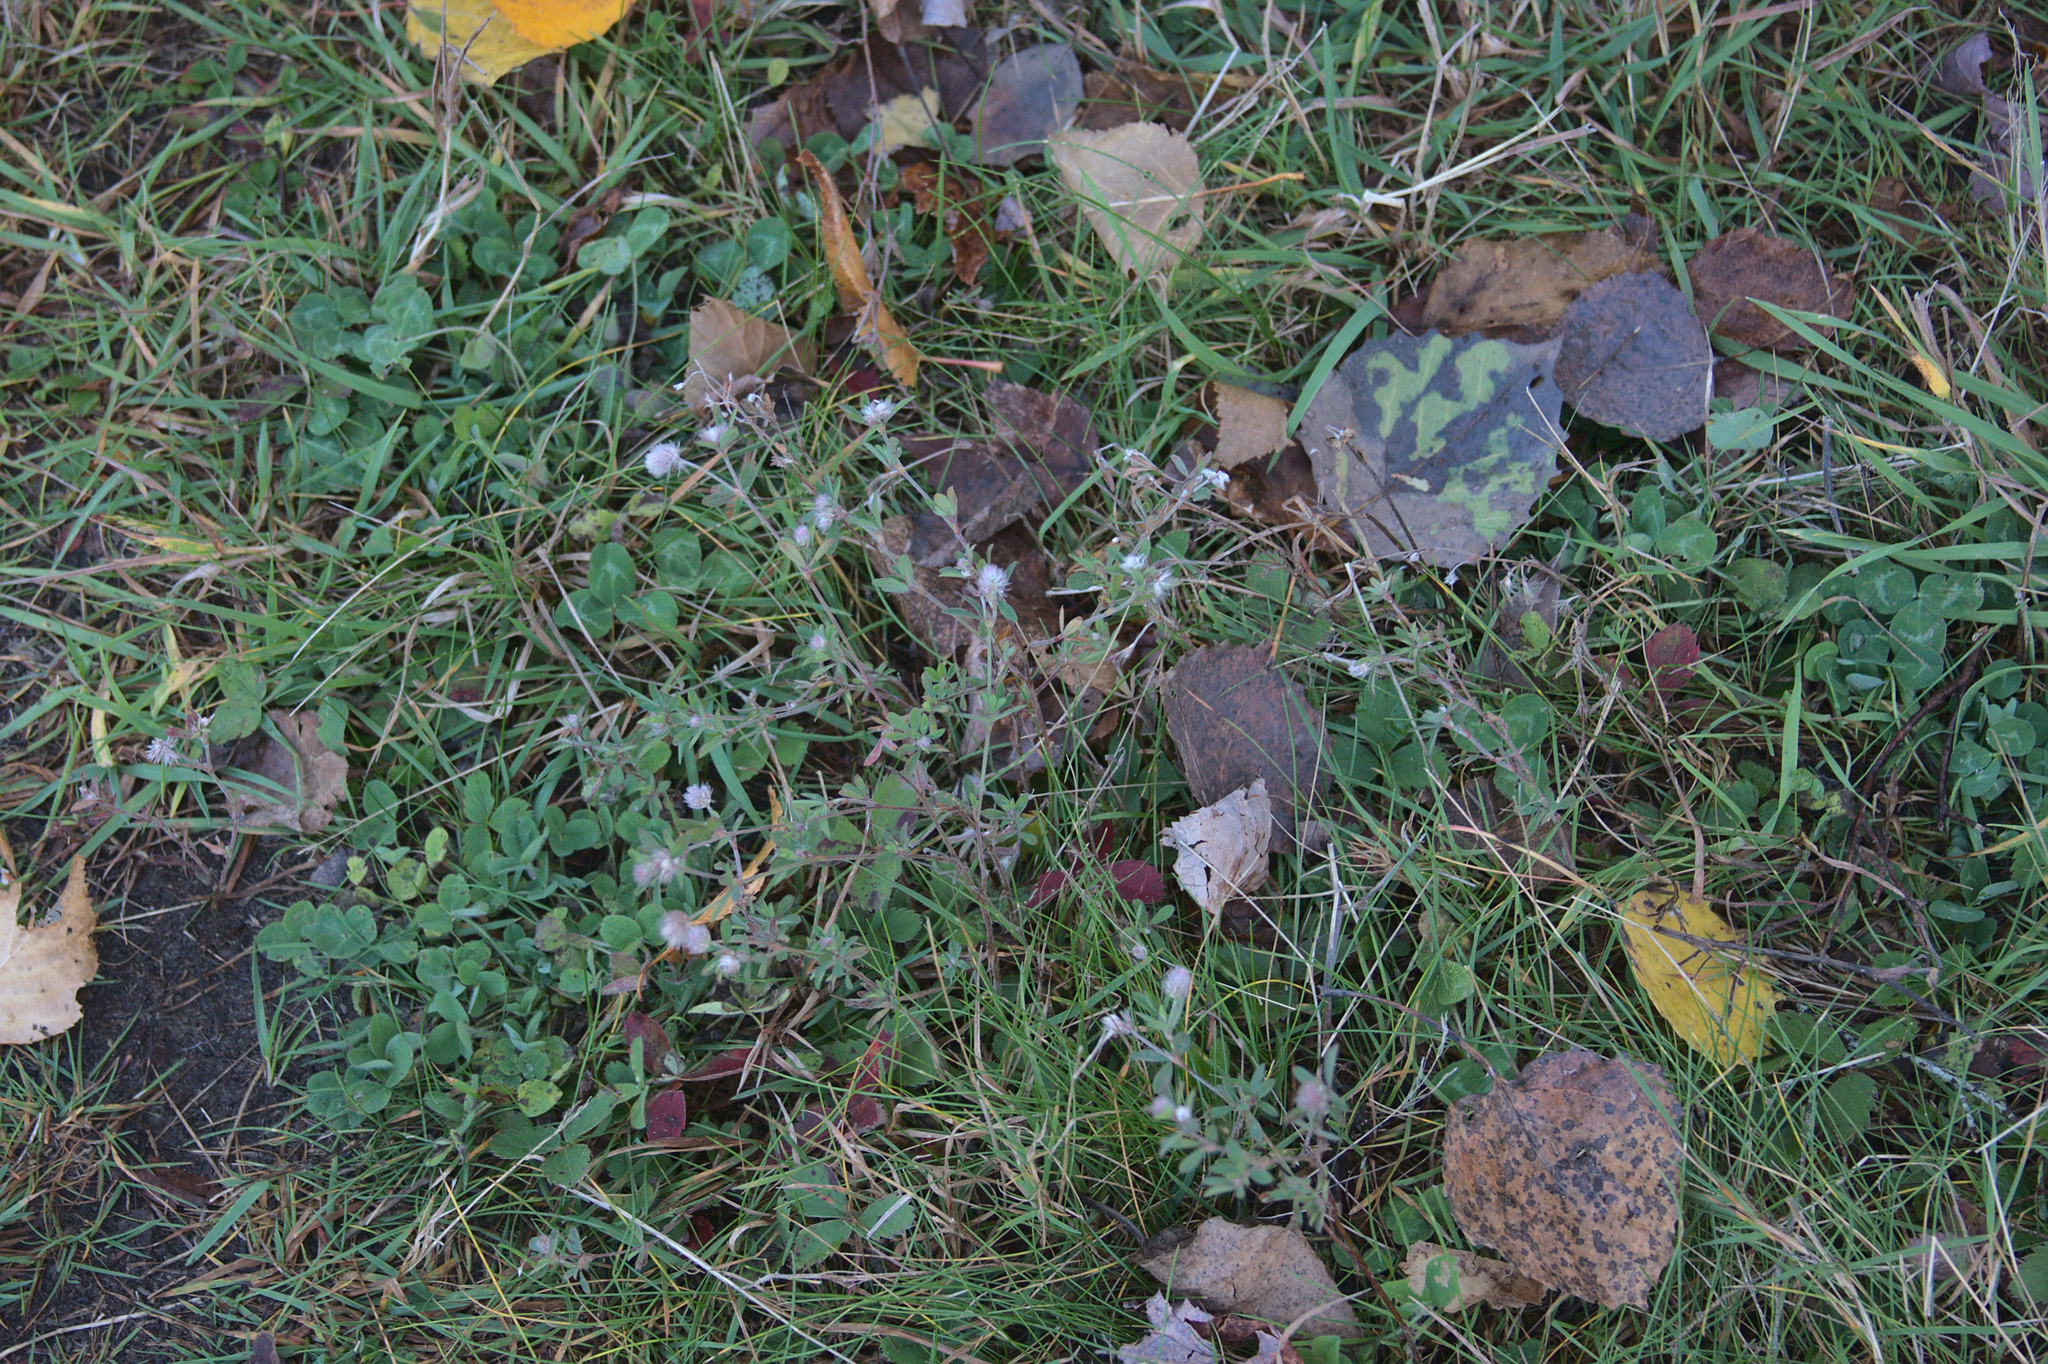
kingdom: Plantae
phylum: Tracheophyta
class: Magnoliopsida
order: Fabales
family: Fabaceae
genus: Trifolium
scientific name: Trifolium arvense
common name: Hare's-foot clover
